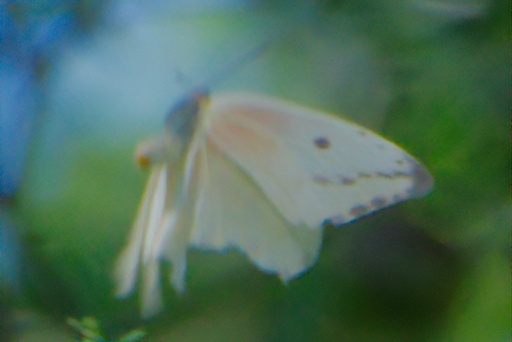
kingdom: Animalia
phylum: Arthropoda
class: Insecta
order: Lepidoptera
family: Pieridae
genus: Phoebis
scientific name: Phoebis agarithe
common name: Large orange sulphur
